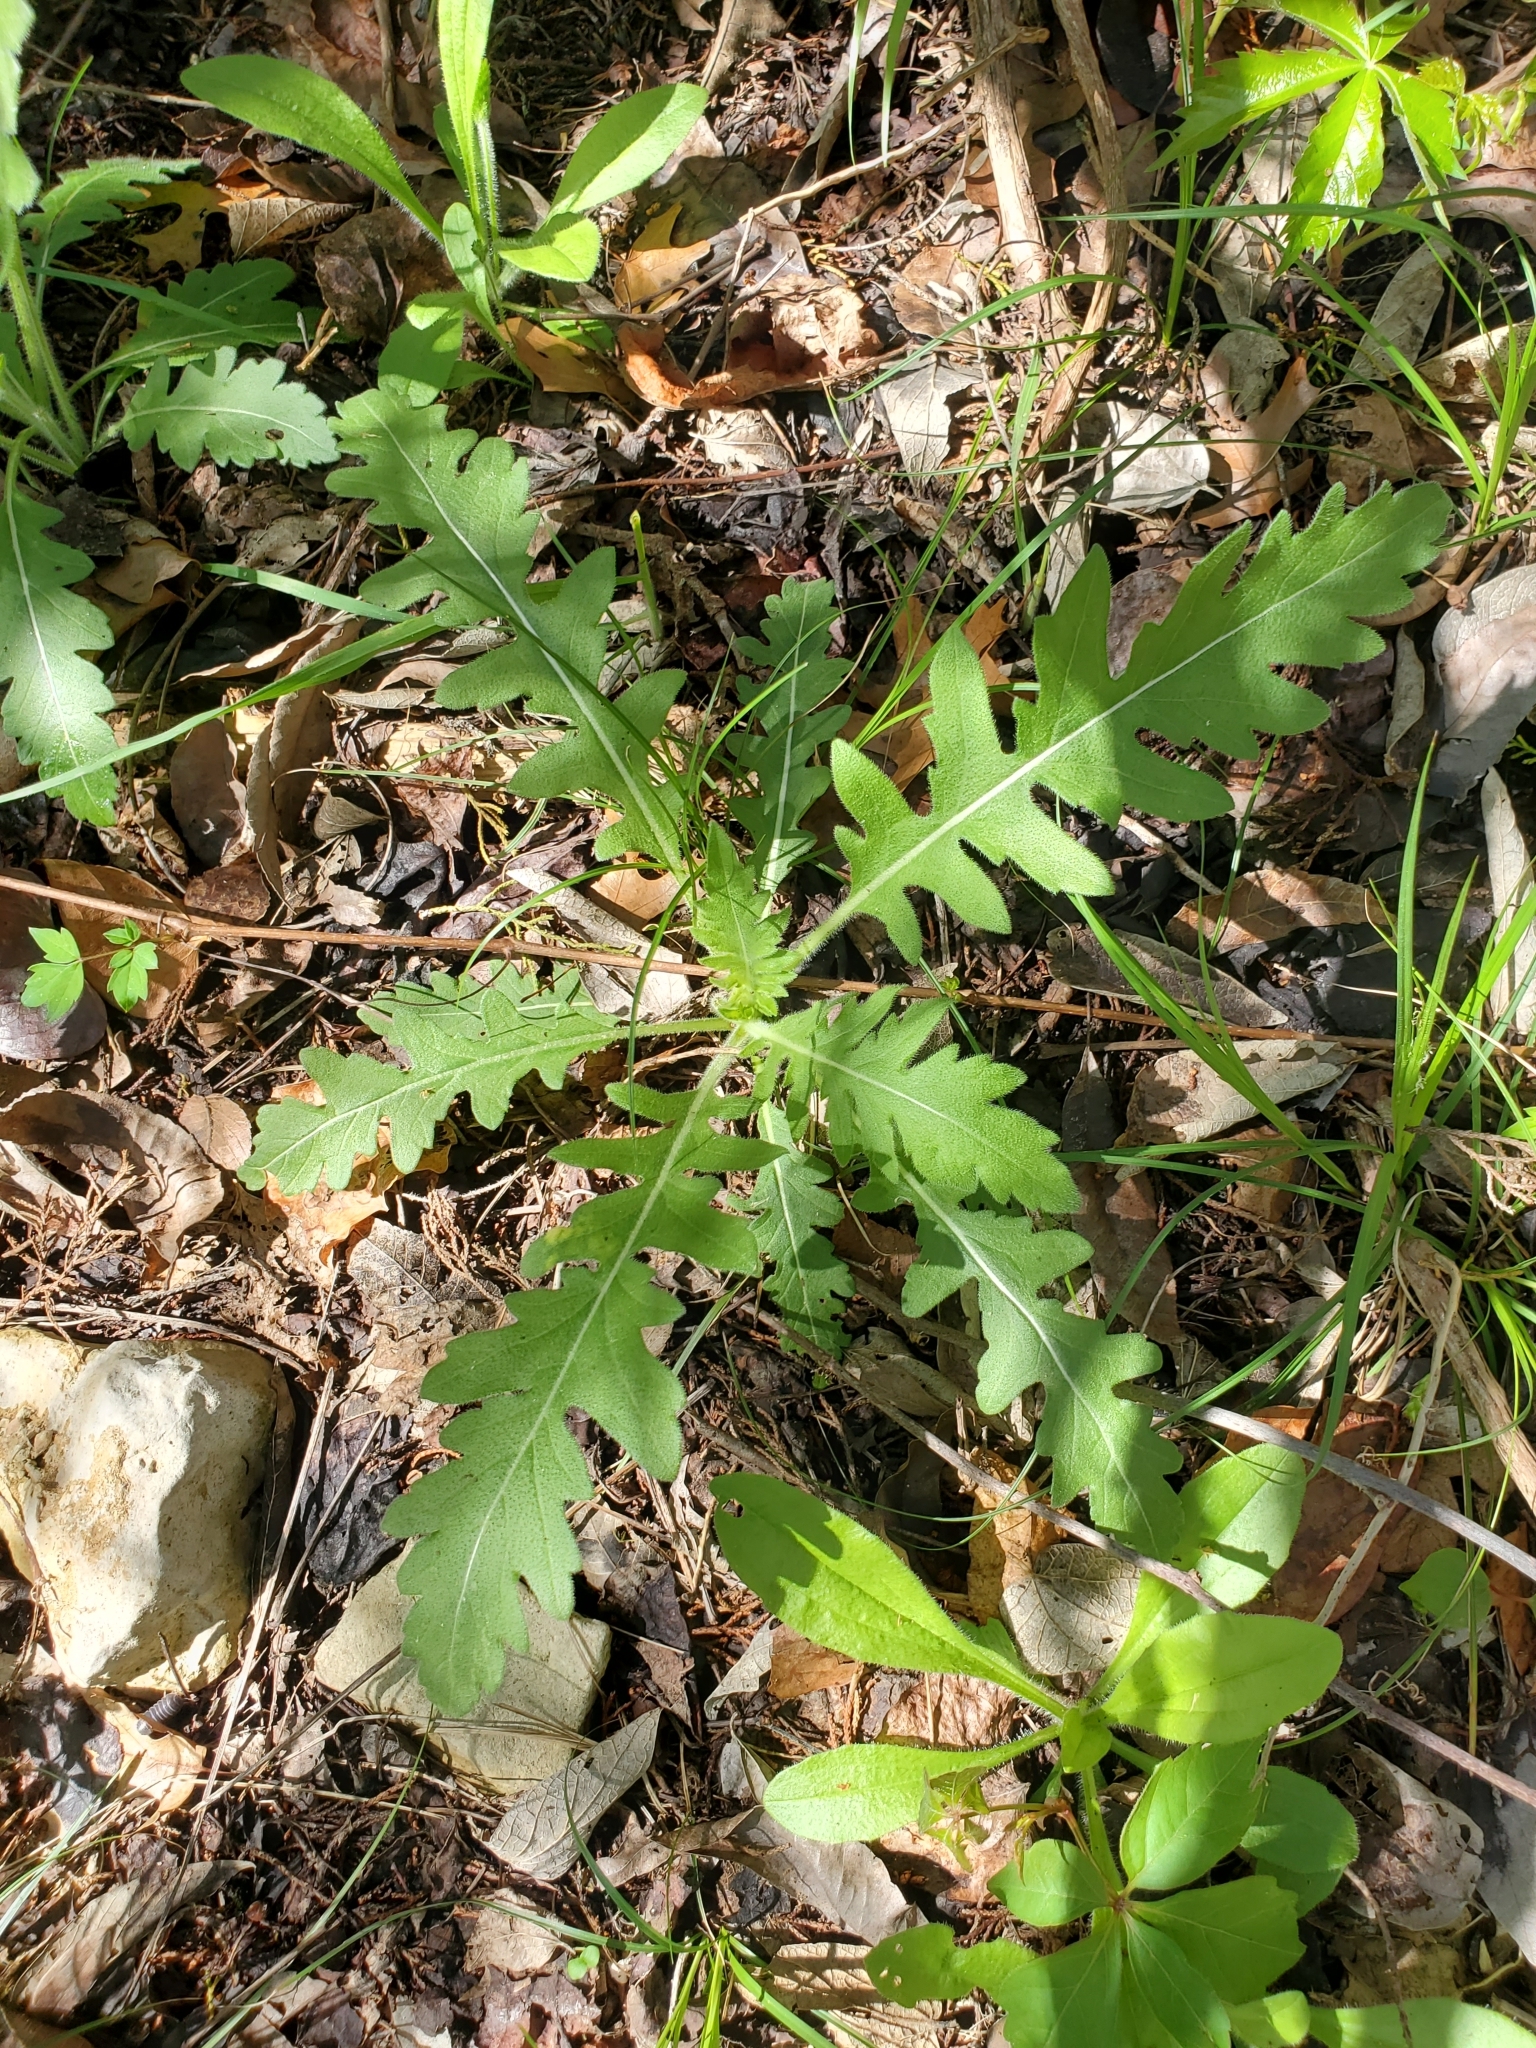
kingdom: Plantae
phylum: Tracheophyta
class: Magnoliopsida
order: Asterales
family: Asteraceae
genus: Engelmannia
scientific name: Engelmannia peristenia
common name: Engelmann's daisy
